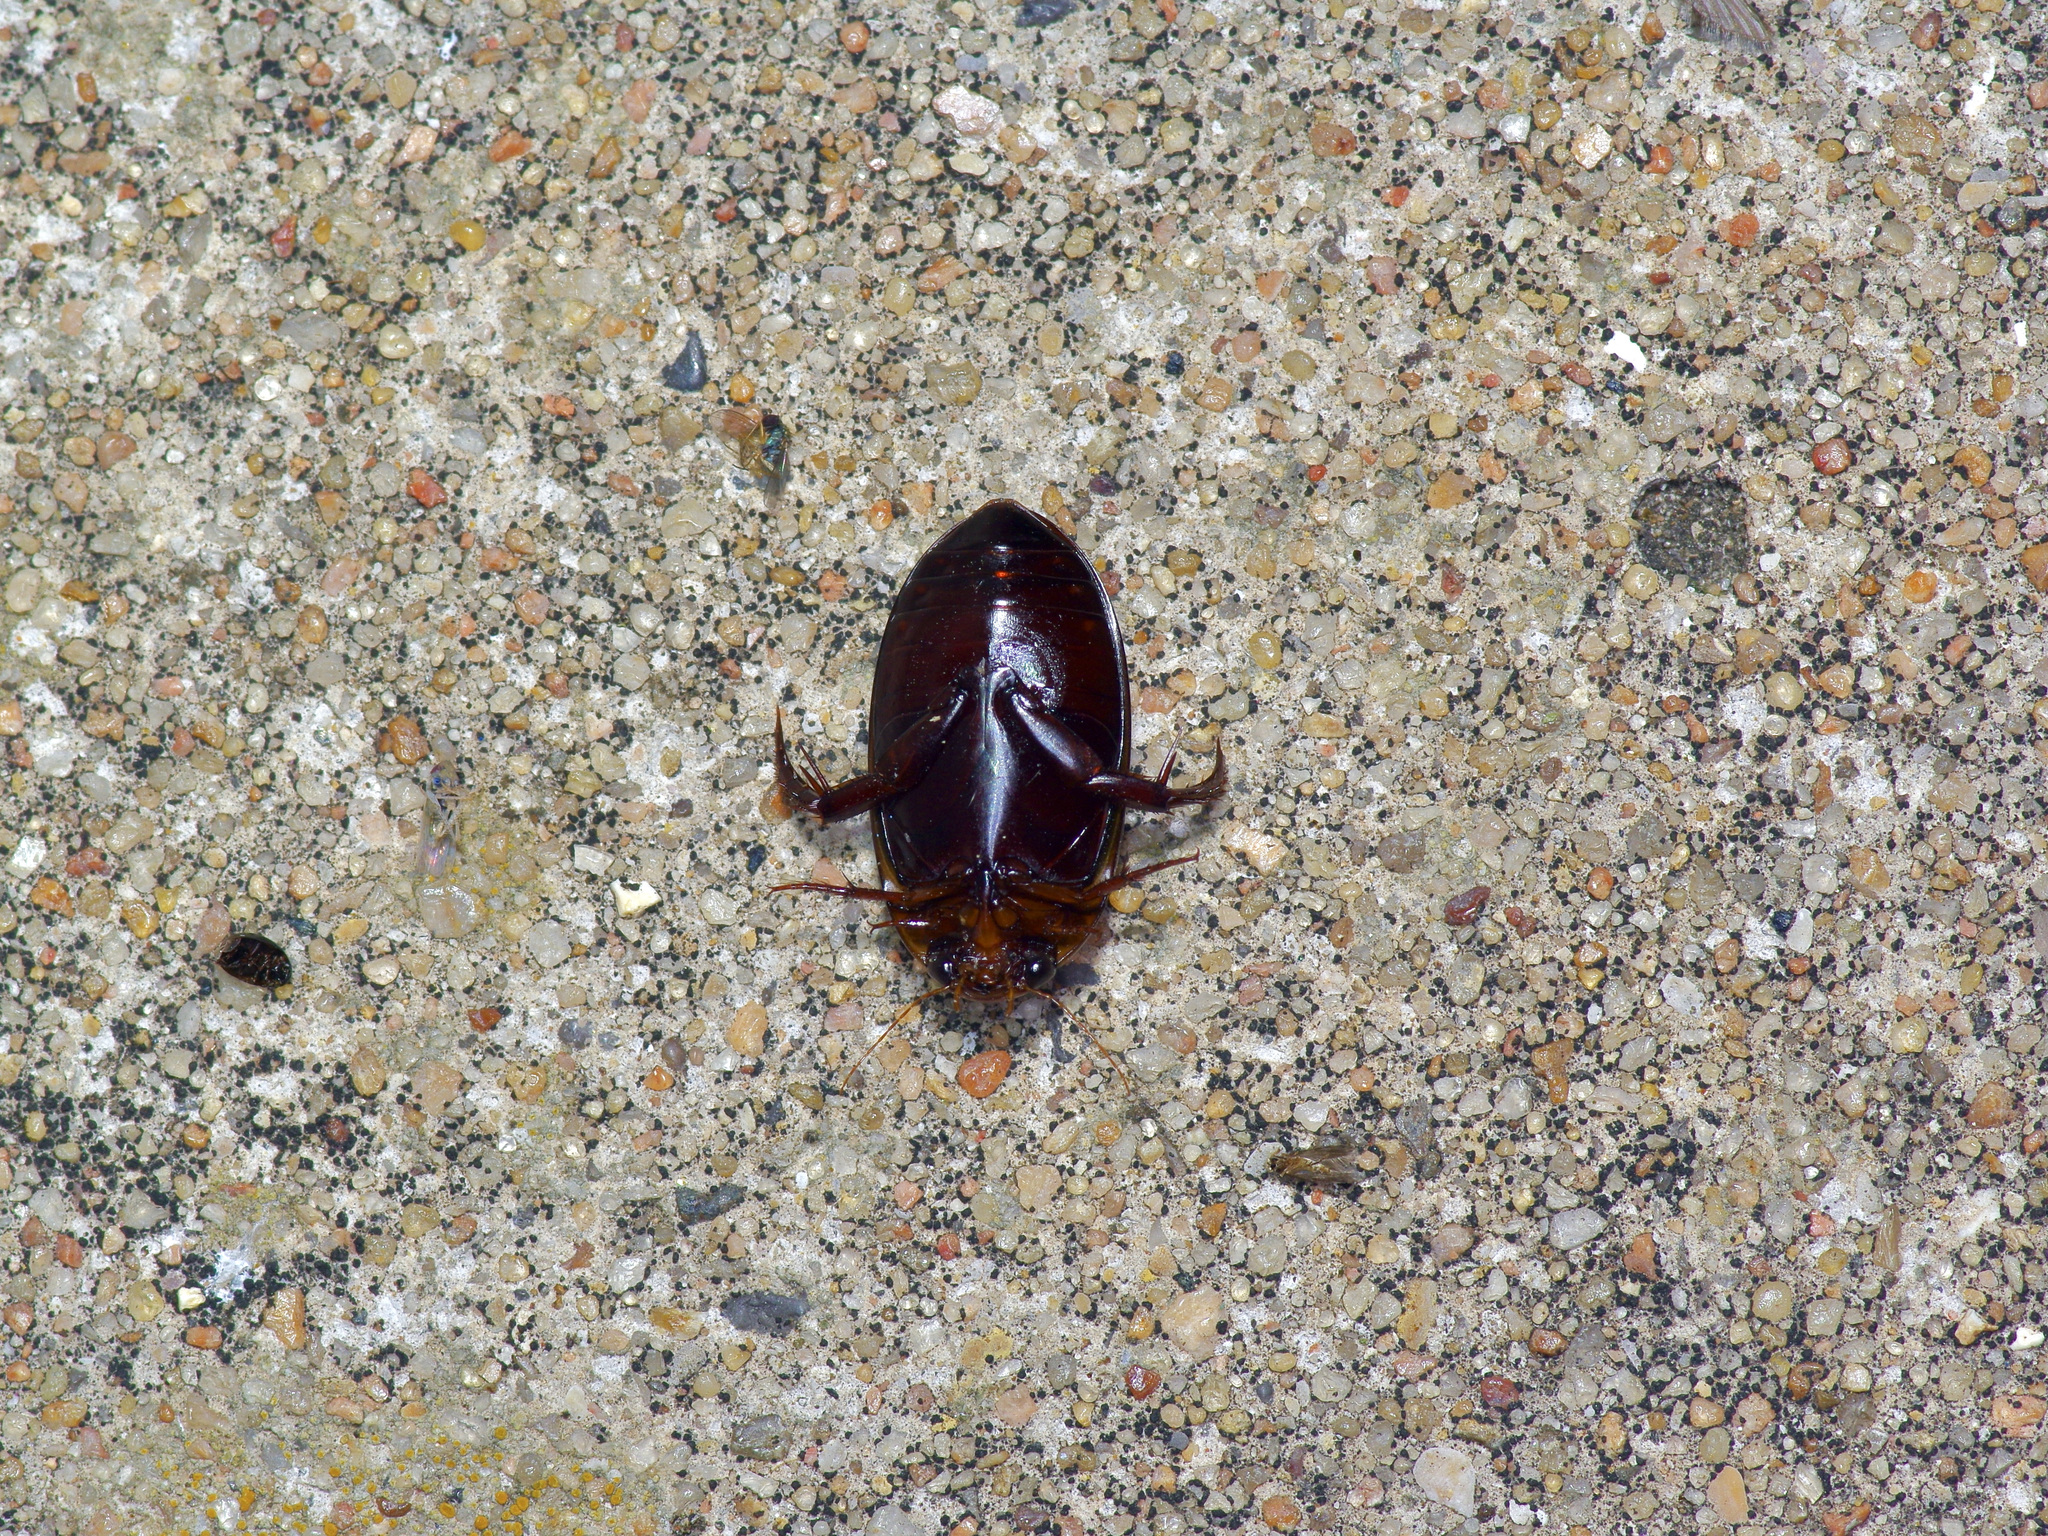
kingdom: Animalia
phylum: Arthropoda
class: Insecta
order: Coleoptera
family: Dytiscidae
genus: Hydaticus
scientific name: Hydaticus bimarginatus
